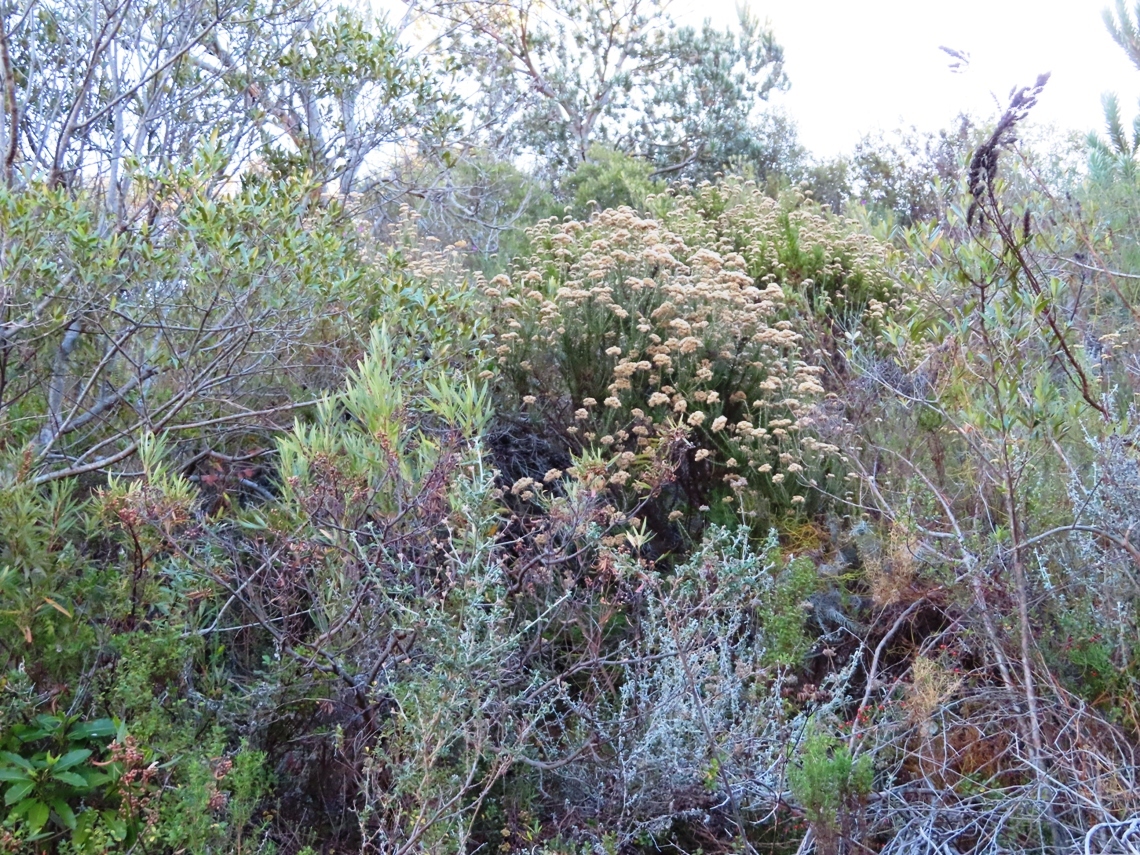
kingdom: Plantae
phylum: Tracheophyta
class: Magnoliopsida
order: Asterales
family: Asteraceae
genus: Metalasia
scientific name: Metalasia densa
